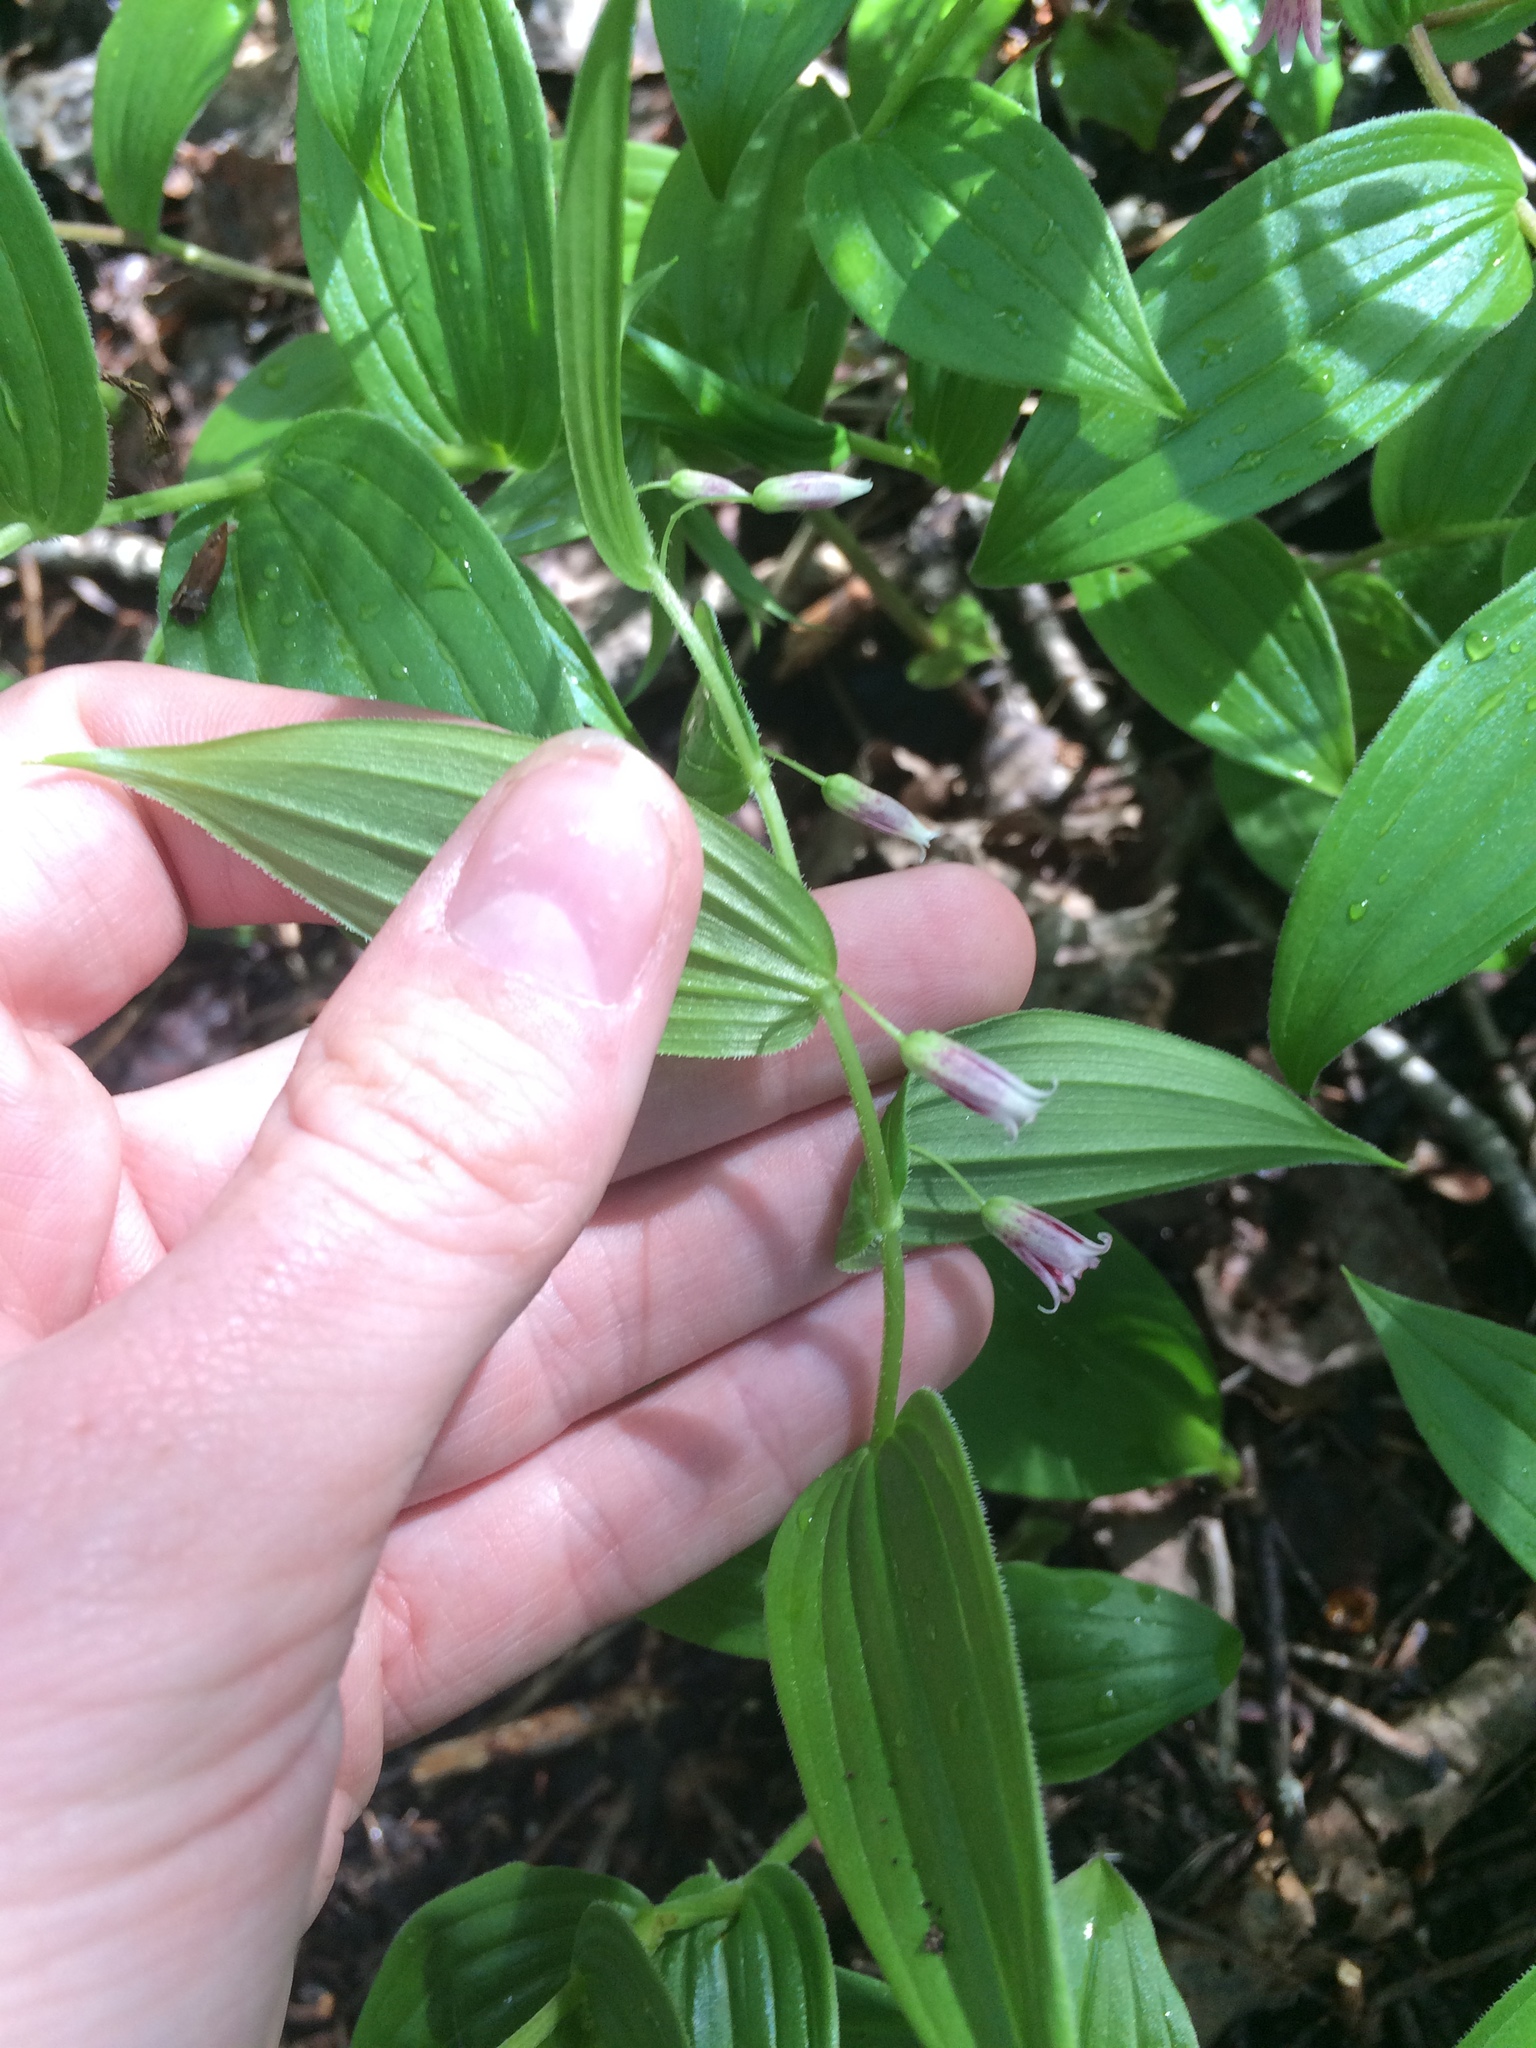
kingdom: Plantae
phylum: Tracheophyta
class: Liliopsida
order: Liliales
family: Liliaceae
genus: Streptopus
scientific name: Streptopus lanceolatus
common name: Rose mandarin
